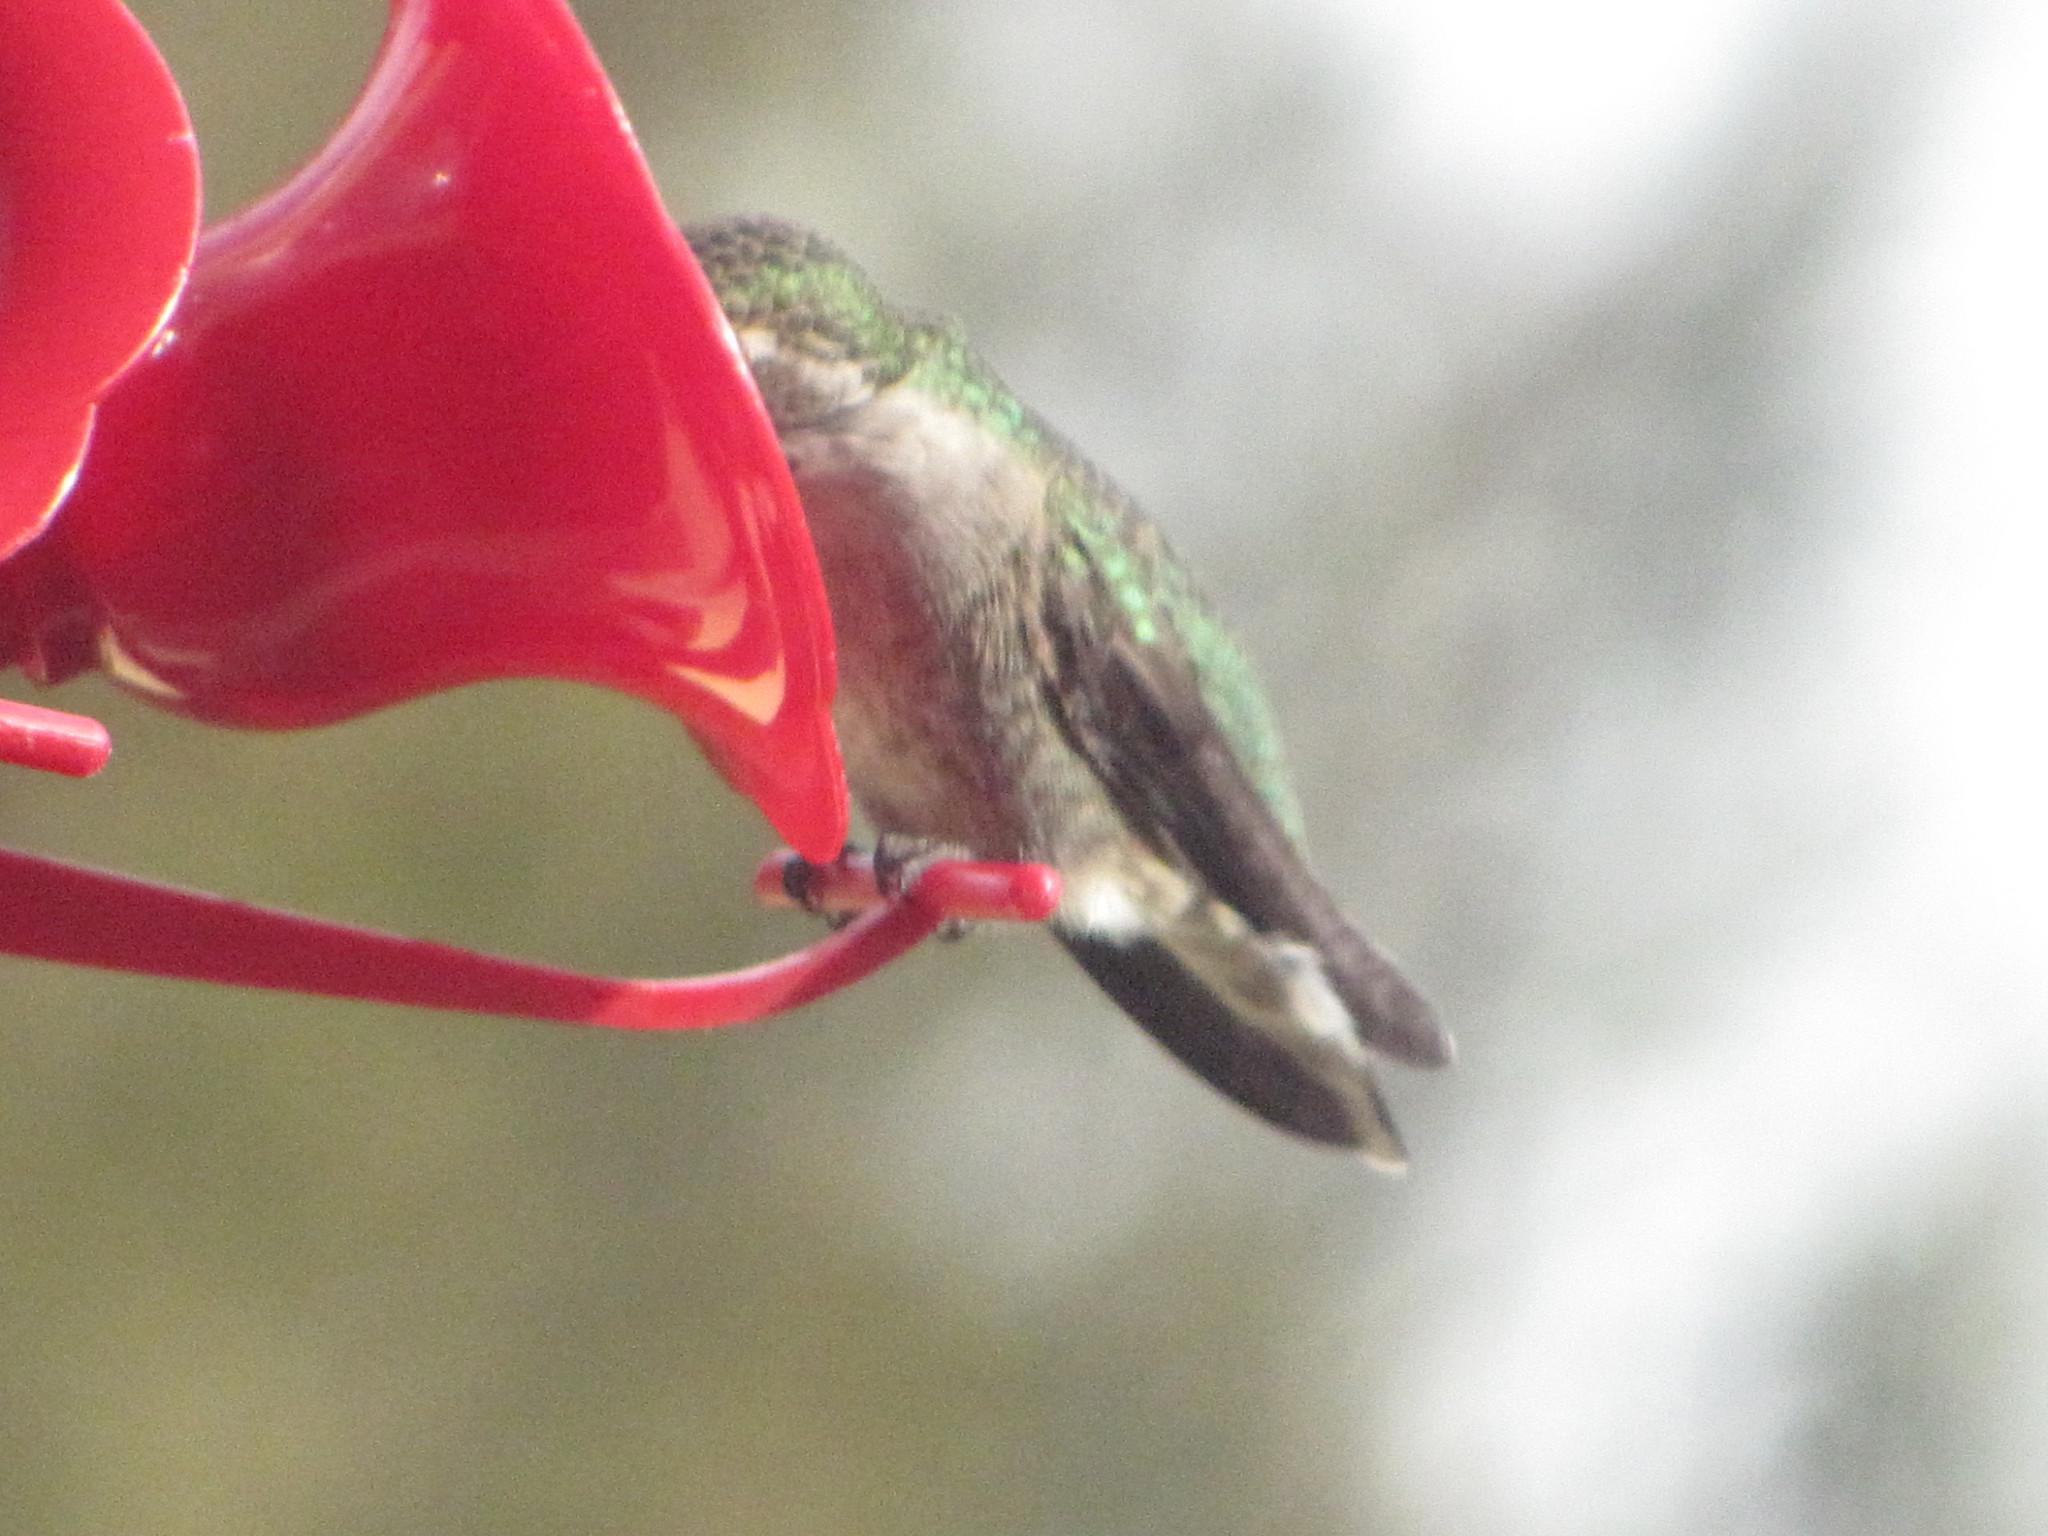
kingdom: Animalia
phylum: Chordata
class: Aves
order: Apodiformes
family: Trochilidae
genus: Calypte
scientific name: Calypte anna
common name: Anna's hummingbird
